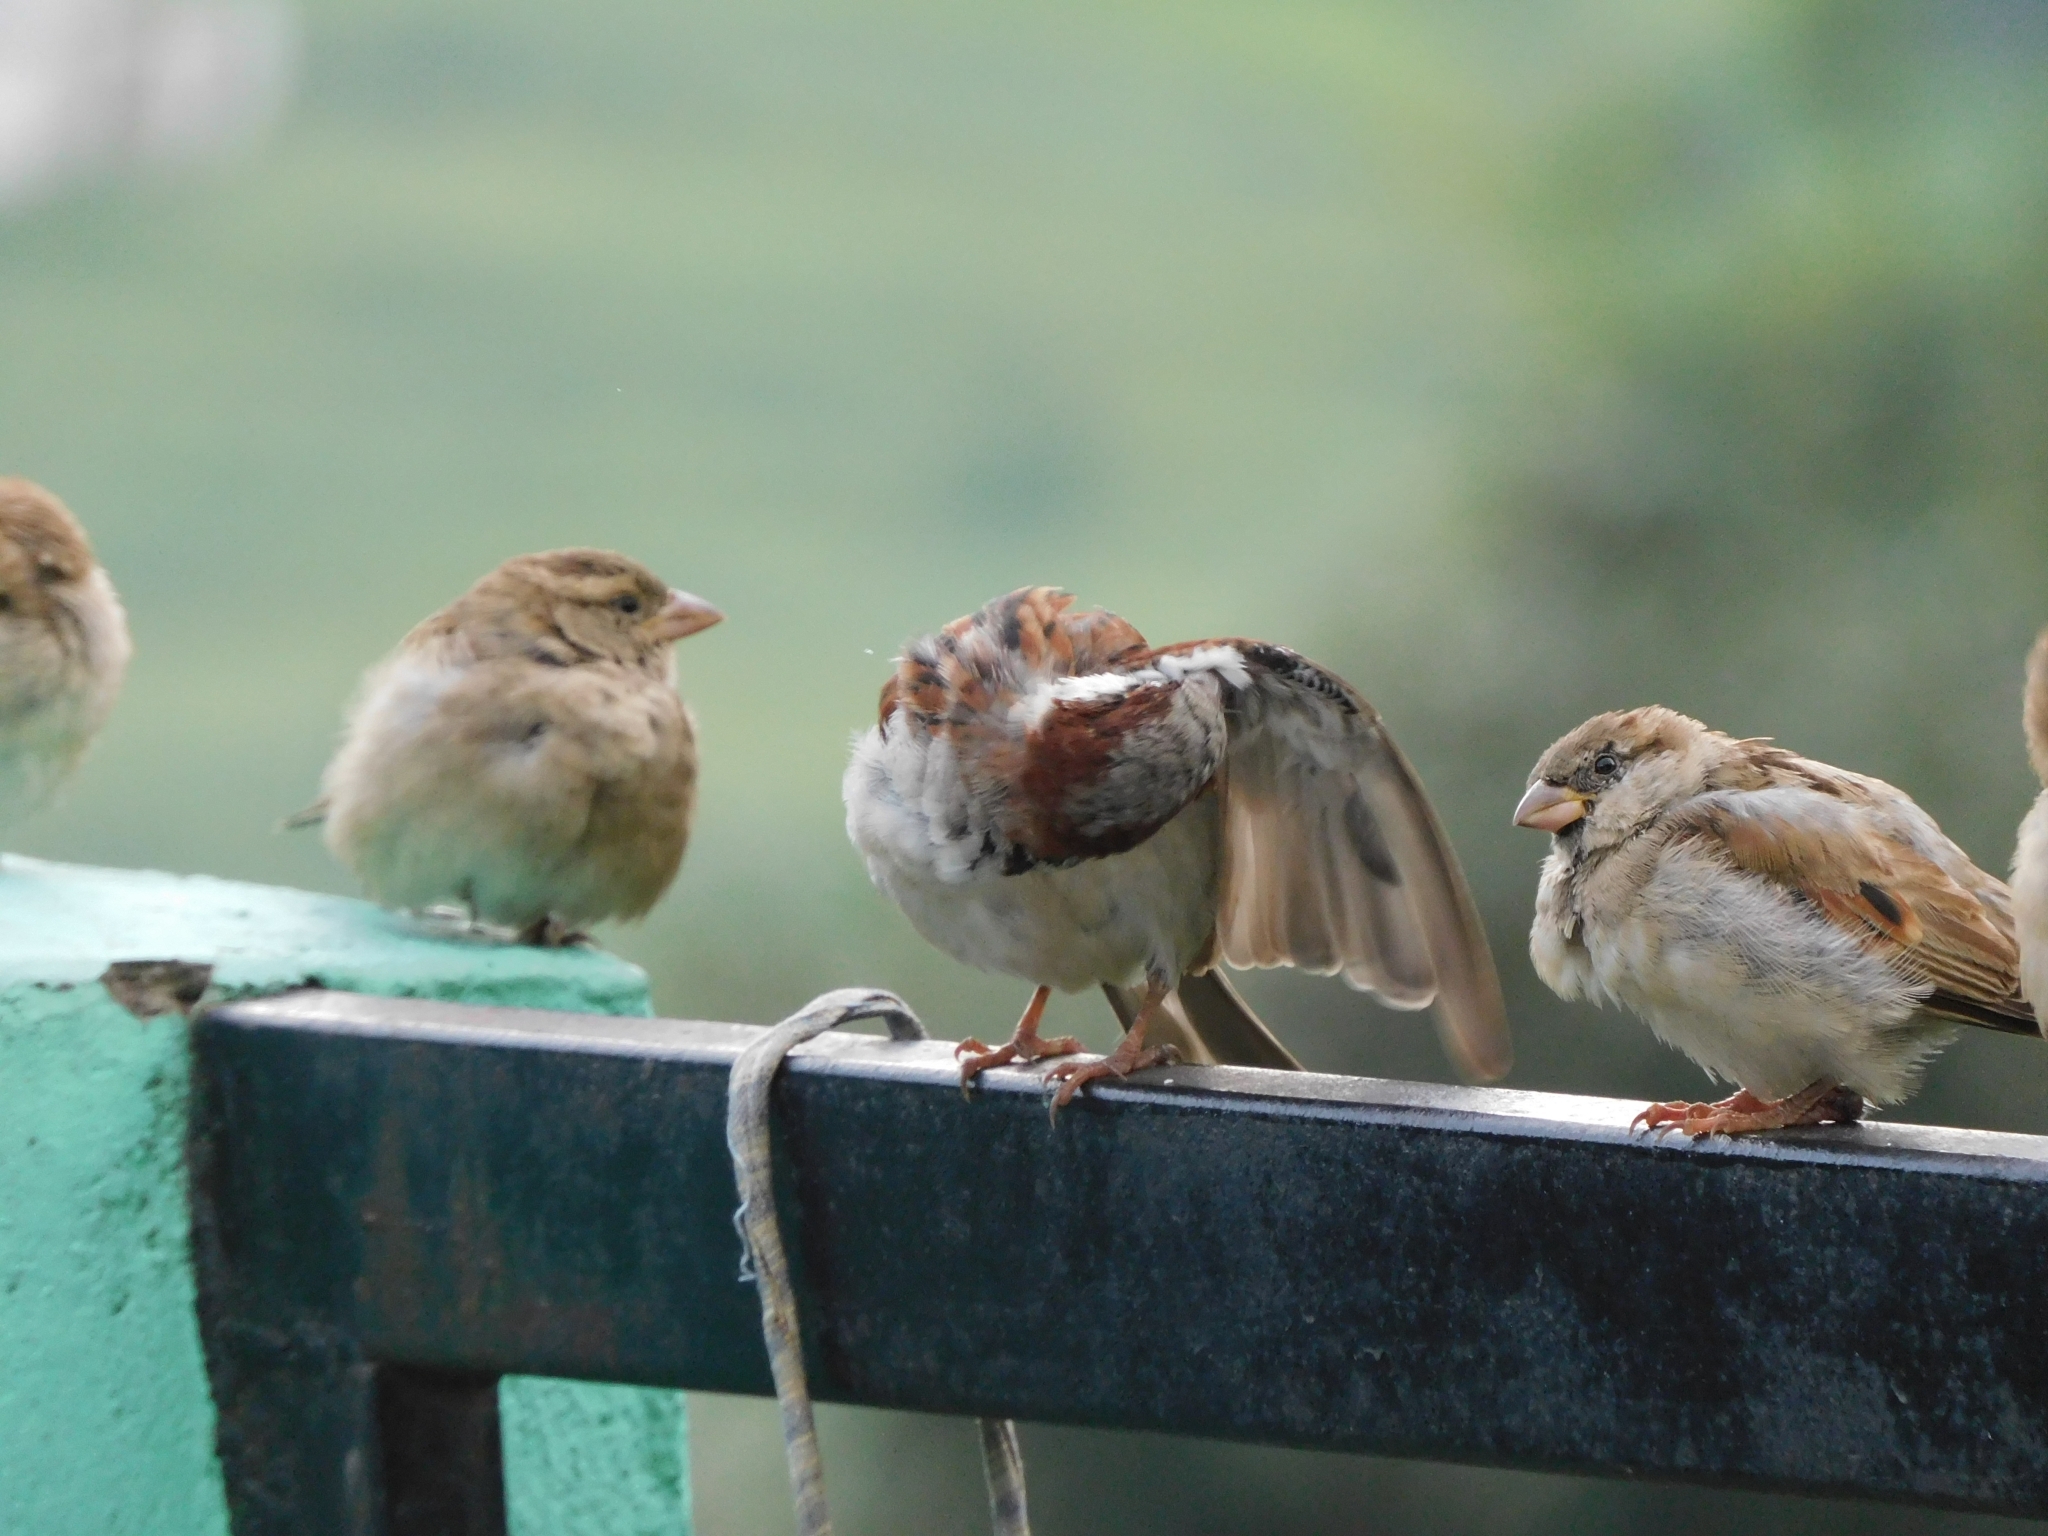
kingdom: Animalia
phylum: Chordata
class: Aves
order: Passeriformes
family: Passeridae
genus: Passer
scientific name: Passer domesticus
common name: House sparrow
